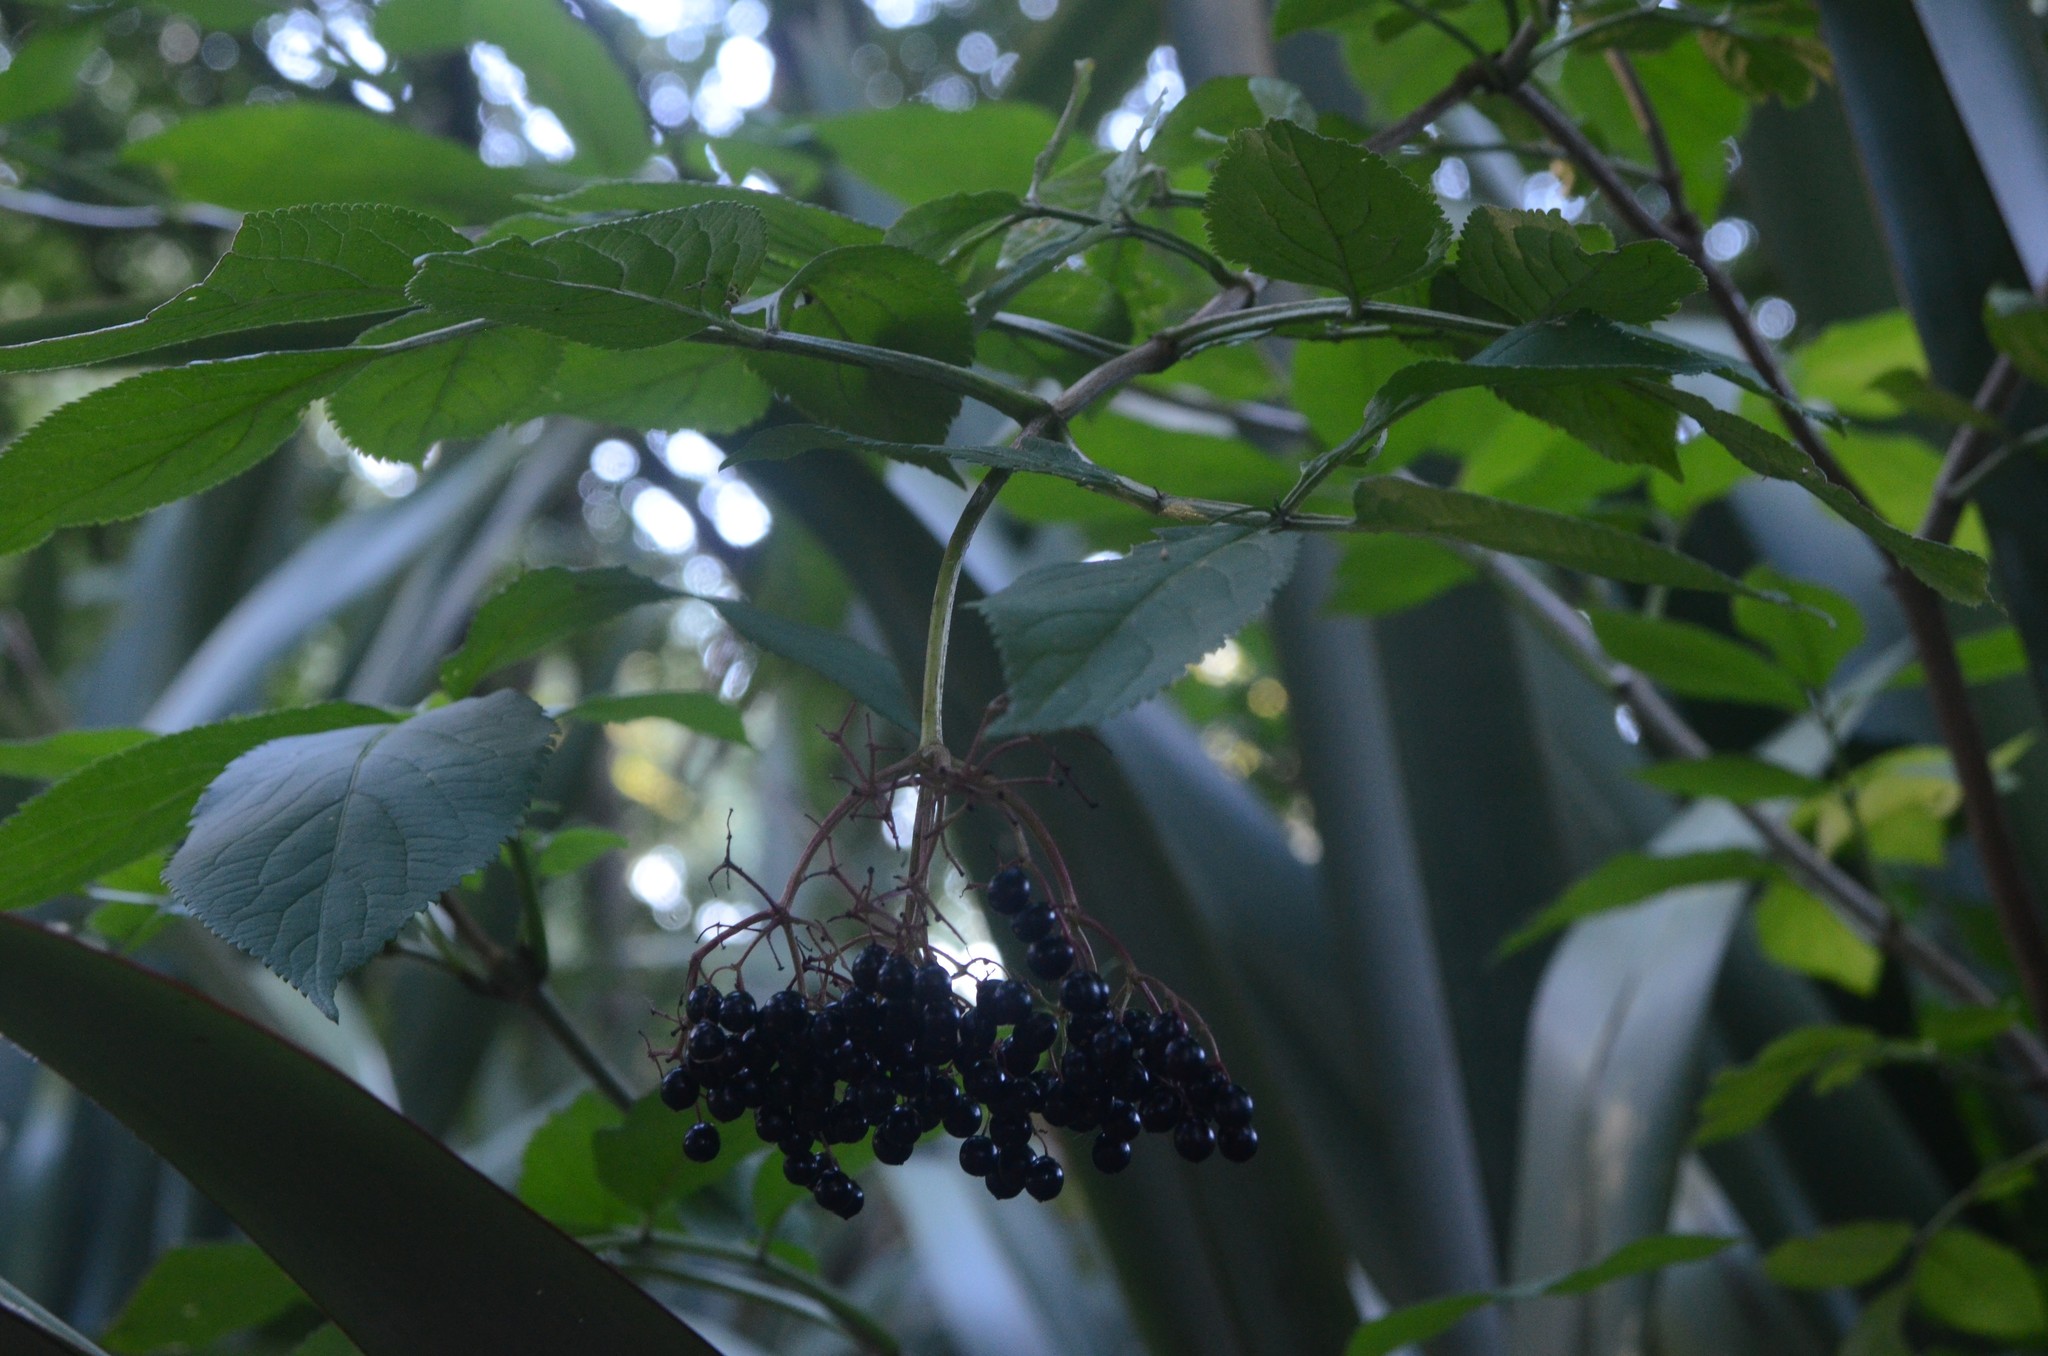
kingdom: Plantae
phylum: Tracheophyta
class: Magnoliopsida
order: Dipsacales
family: Viburnaceae
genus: Sambucus
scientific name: Sambucus nigra
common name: Elder
